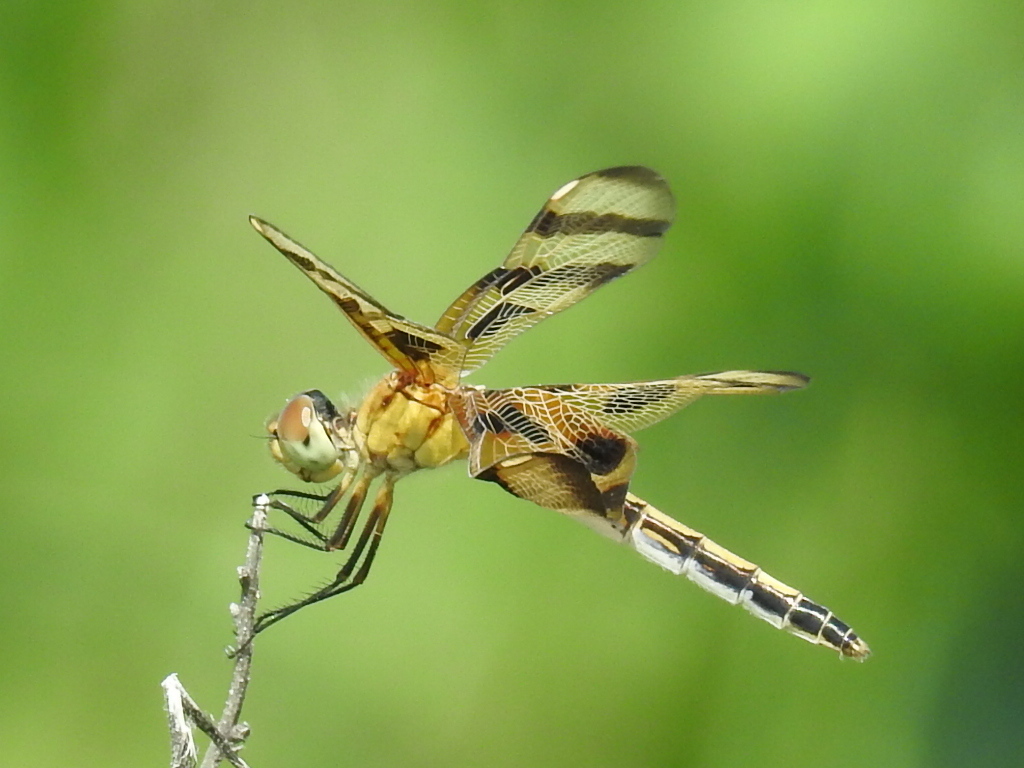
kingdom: Animalia
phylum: Arthropoda
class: Insecta
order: Odonata
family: Libellulidae
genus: Celithemis
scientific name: Celithemis eponina
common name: Halloween pennant
